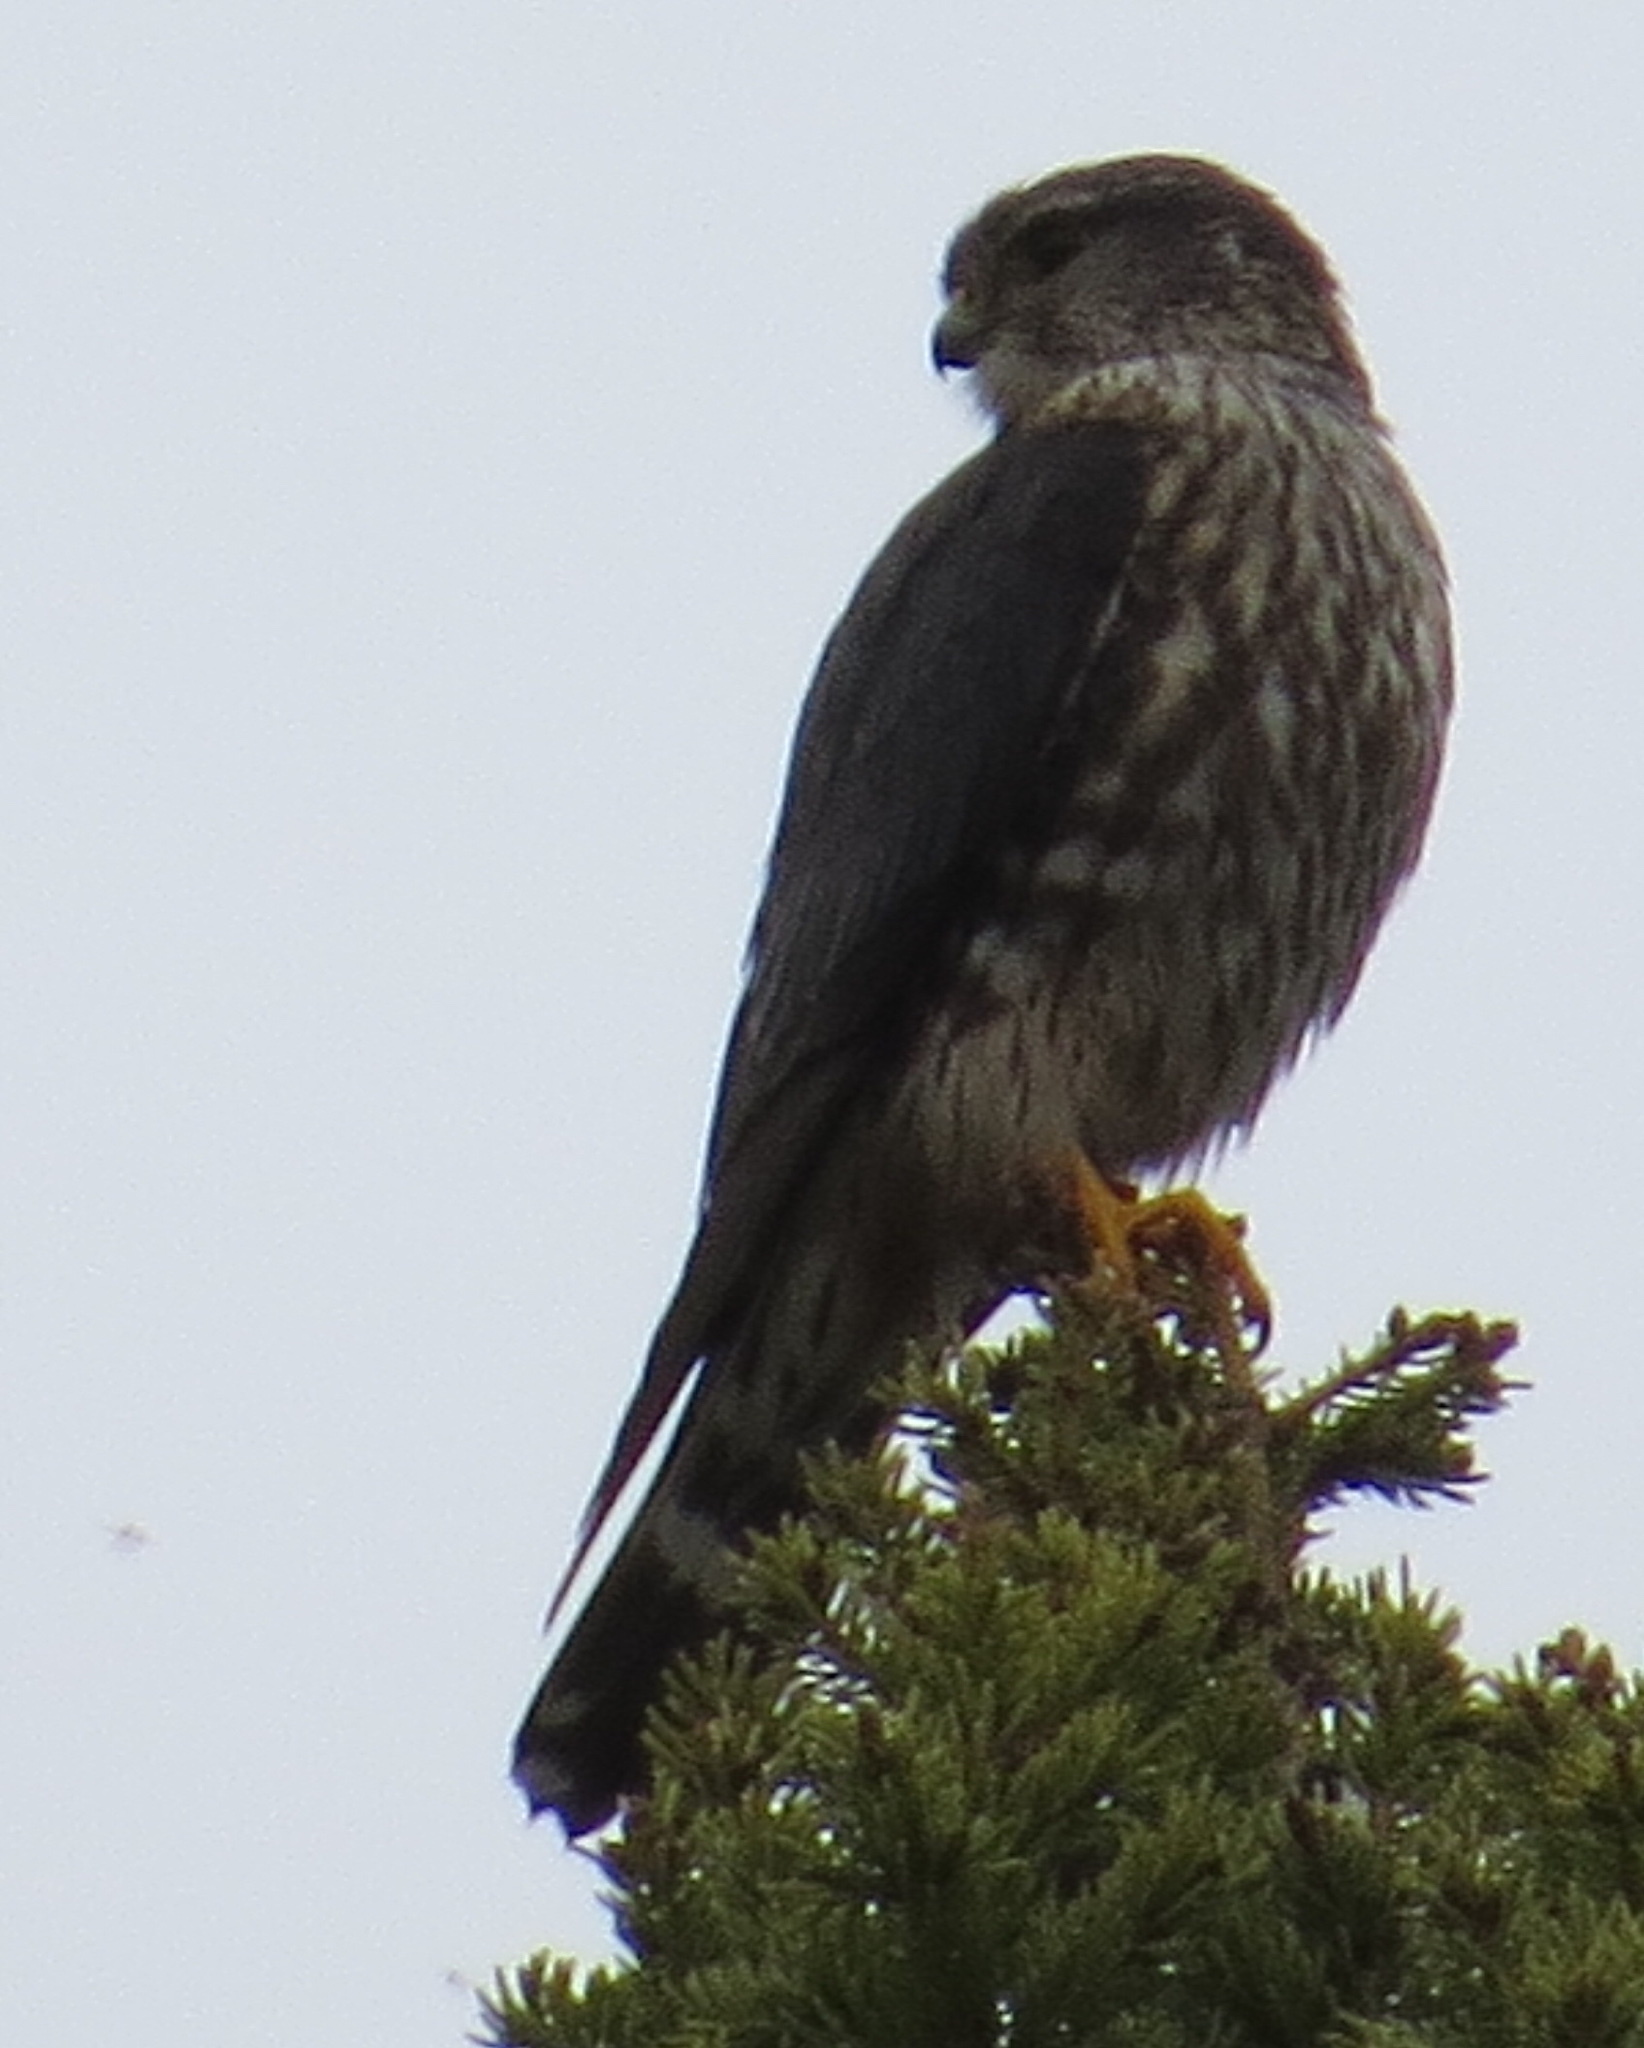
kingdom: Animalia
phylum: Chordata
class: Aves
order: Falconiformes
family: Falconidae
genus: Falco
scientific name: Falco columbarius
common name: Merlin
